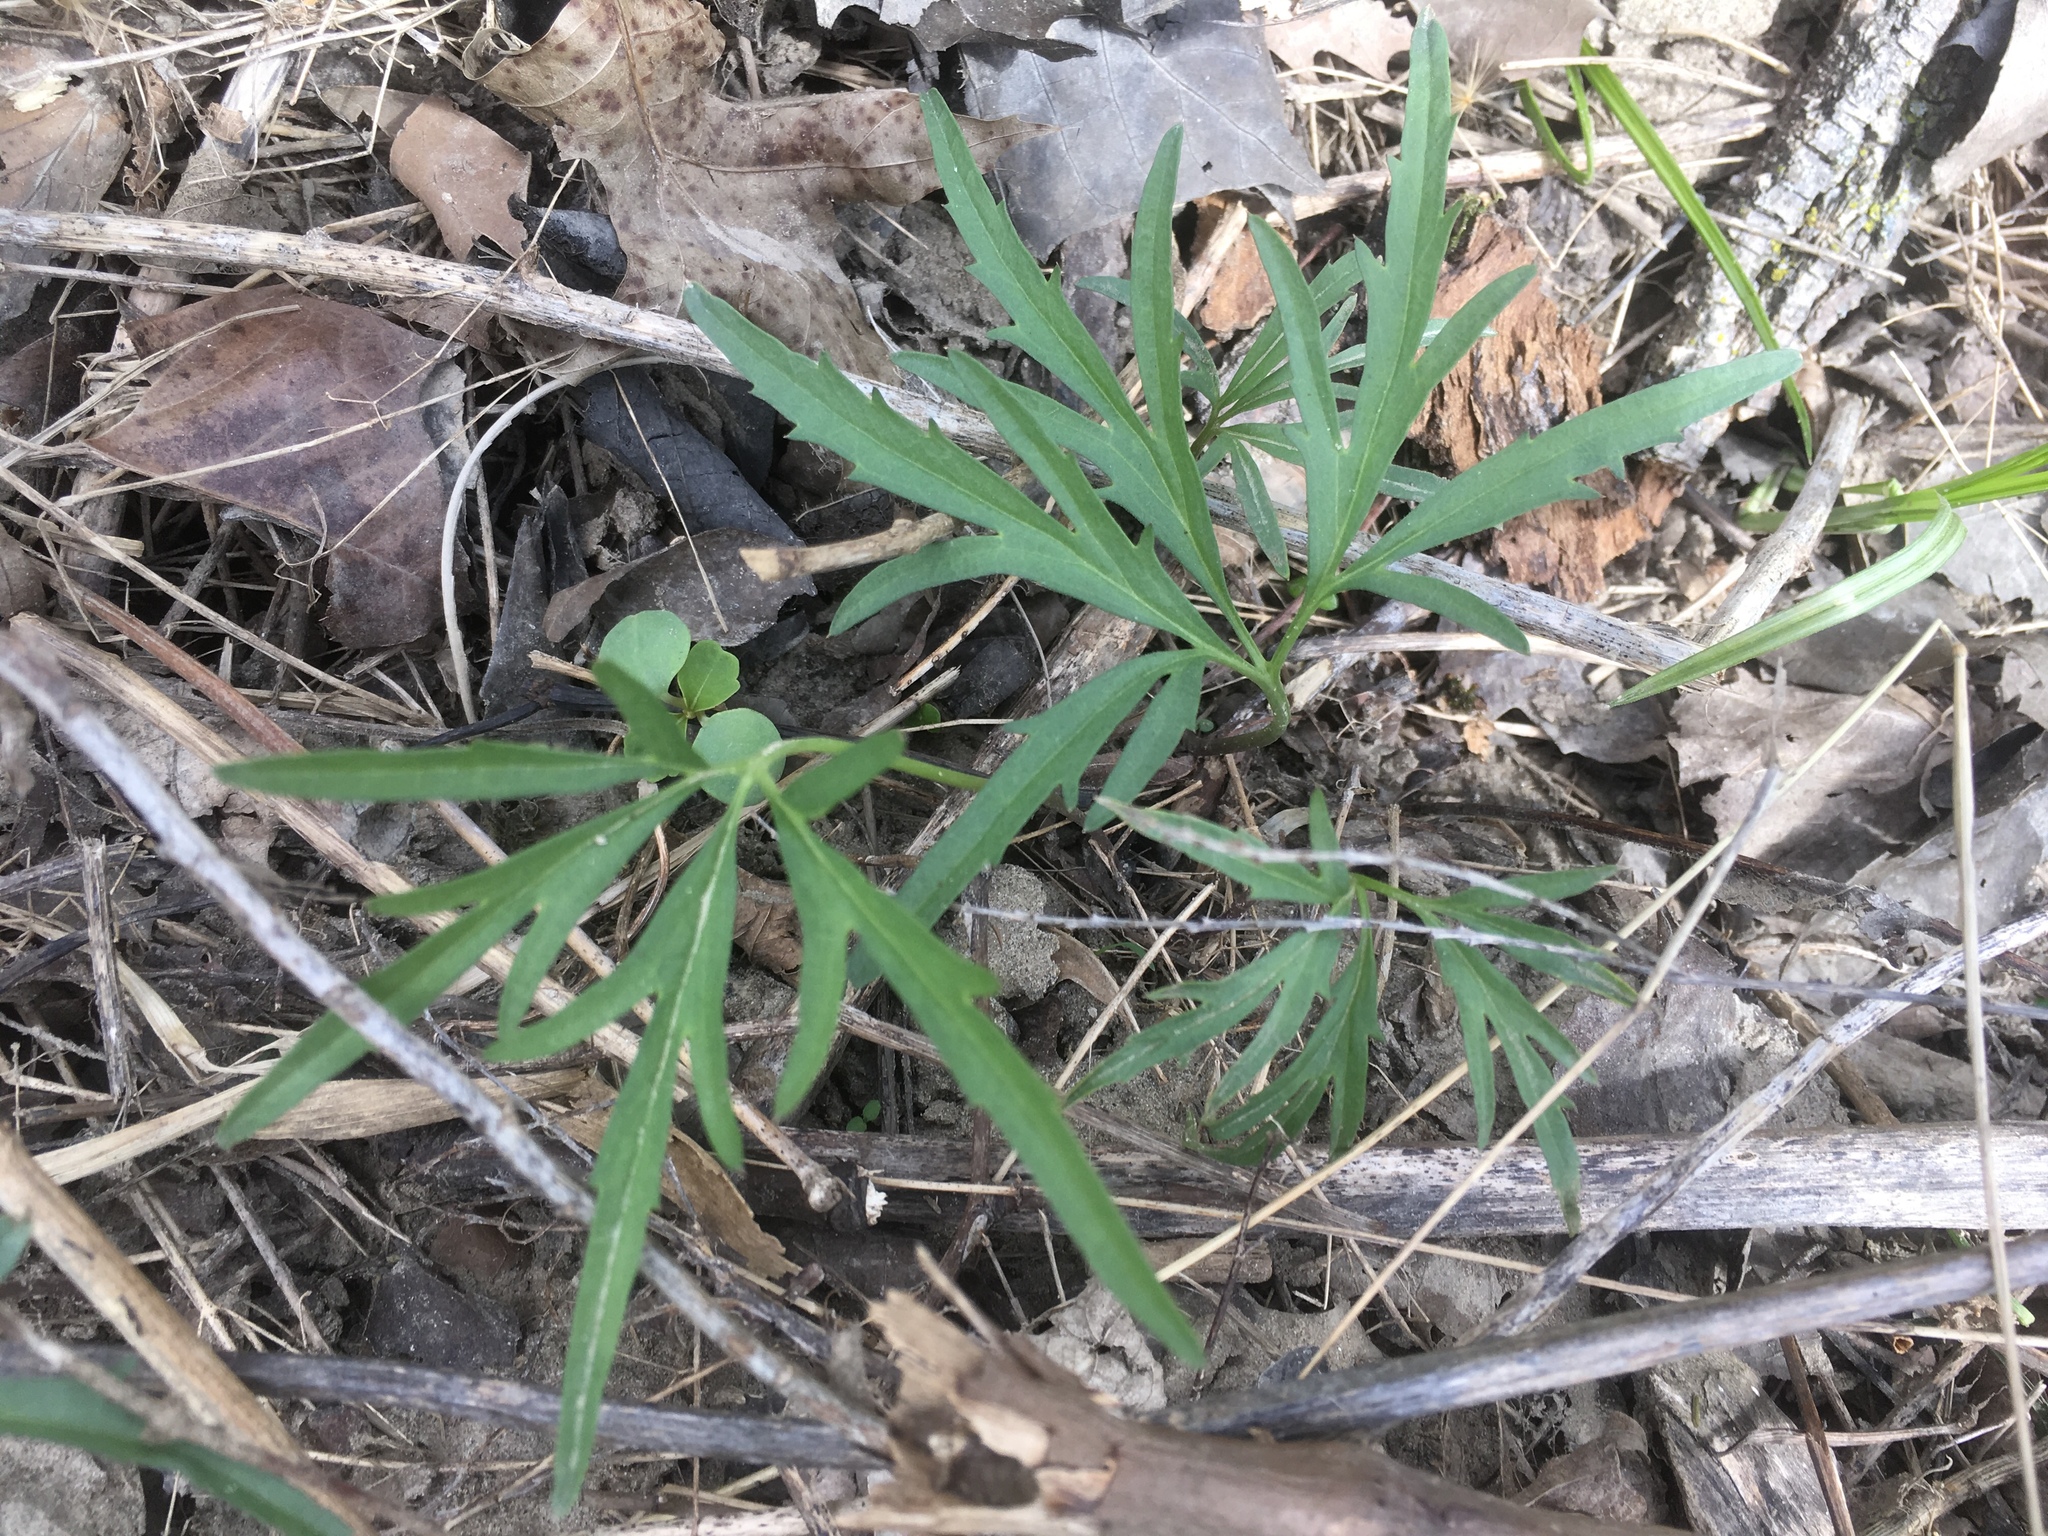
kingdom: Plantae
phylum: Tracheophyta
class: Magnoliopsida
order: Brassicales
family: Brassicaceae
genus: Cardamine
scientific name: Cardamine concatenata
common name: Cut-leaf toothcup
